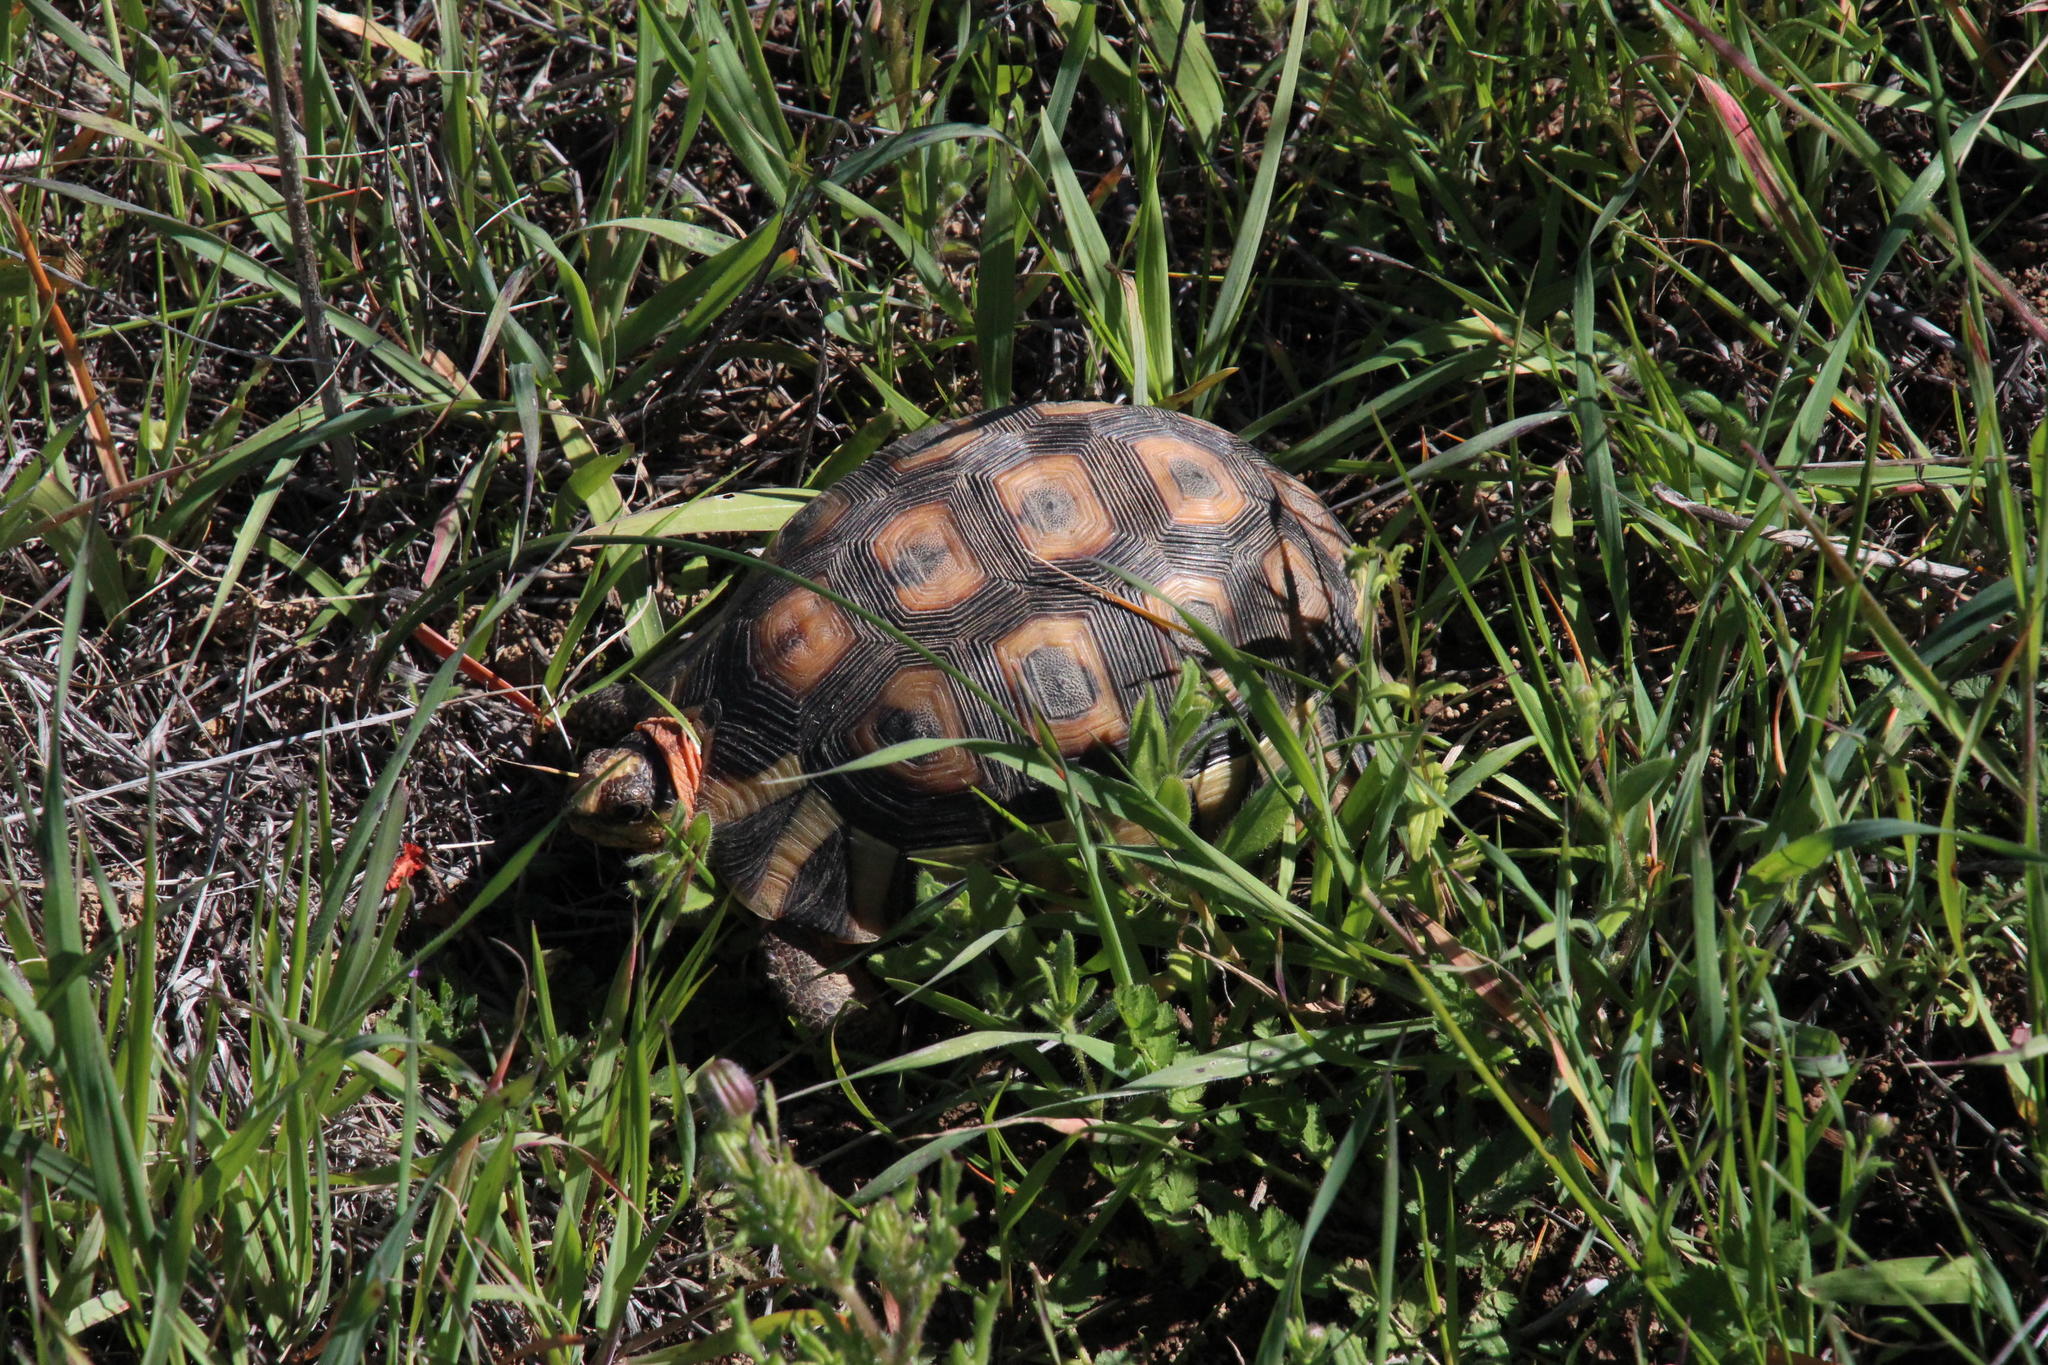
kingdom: Animalia
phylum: Chordata
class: Testudines
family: Testudinidae
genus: Chersina
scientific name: Chersina angulata
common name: South african bowsprit tortoise
